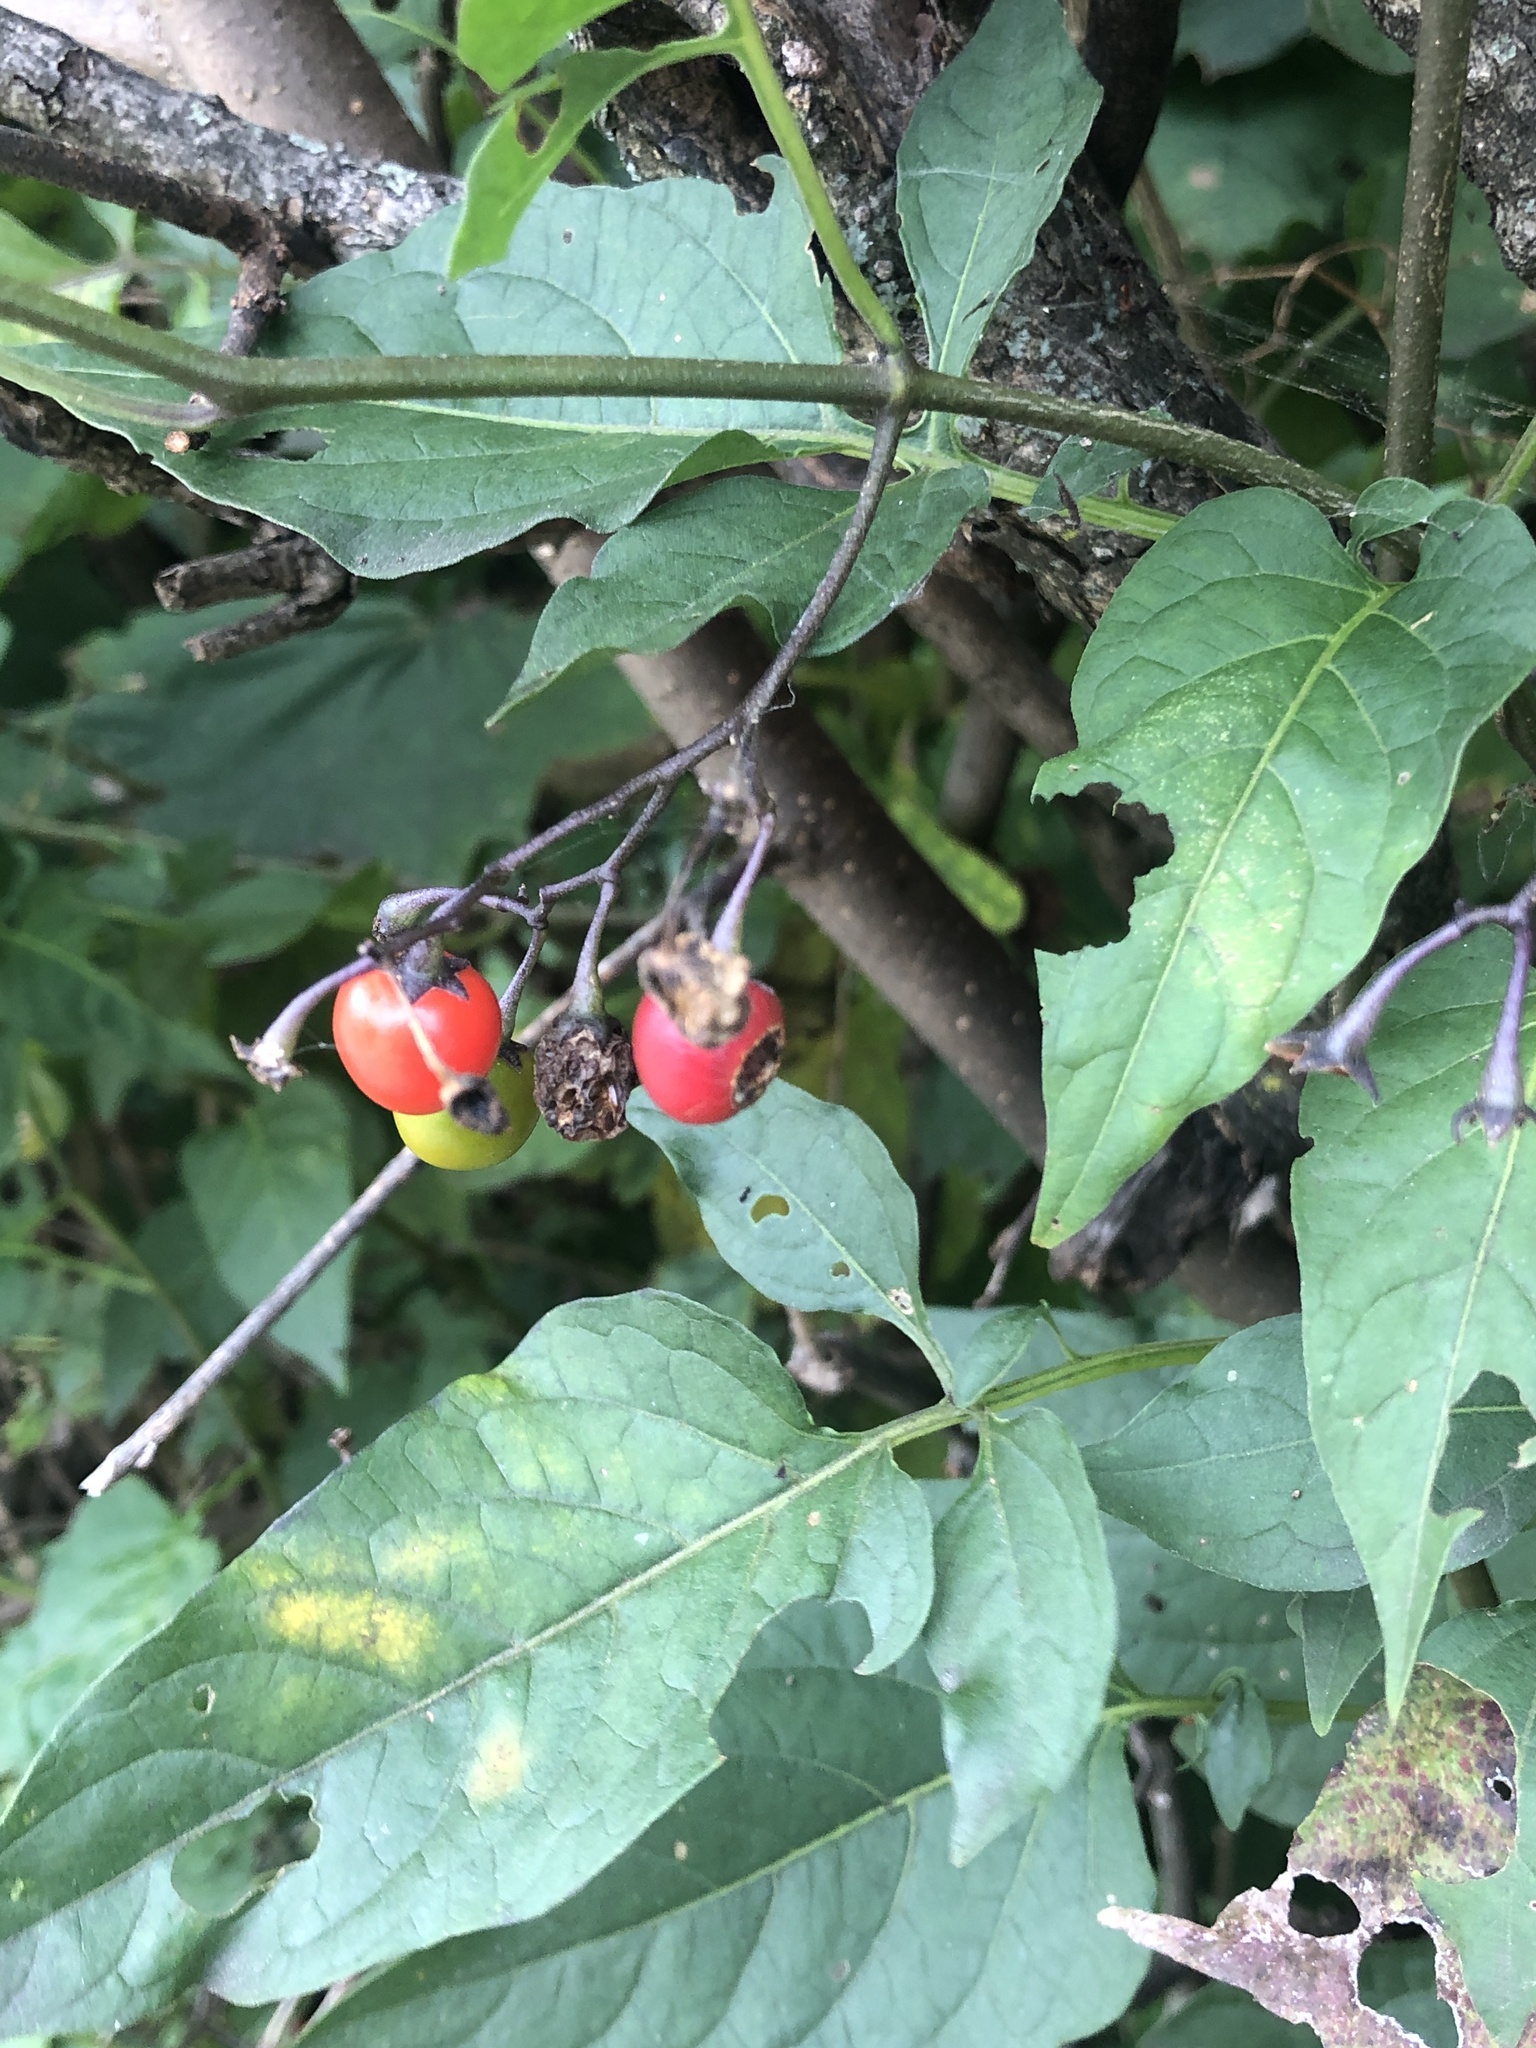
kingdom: Plantae
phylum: Tracheophyta
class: Magnoliopsida
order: Solanales
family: Solanaceae
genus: Solanum
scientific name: Solanum dulcamara
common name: Climbing nightshade
